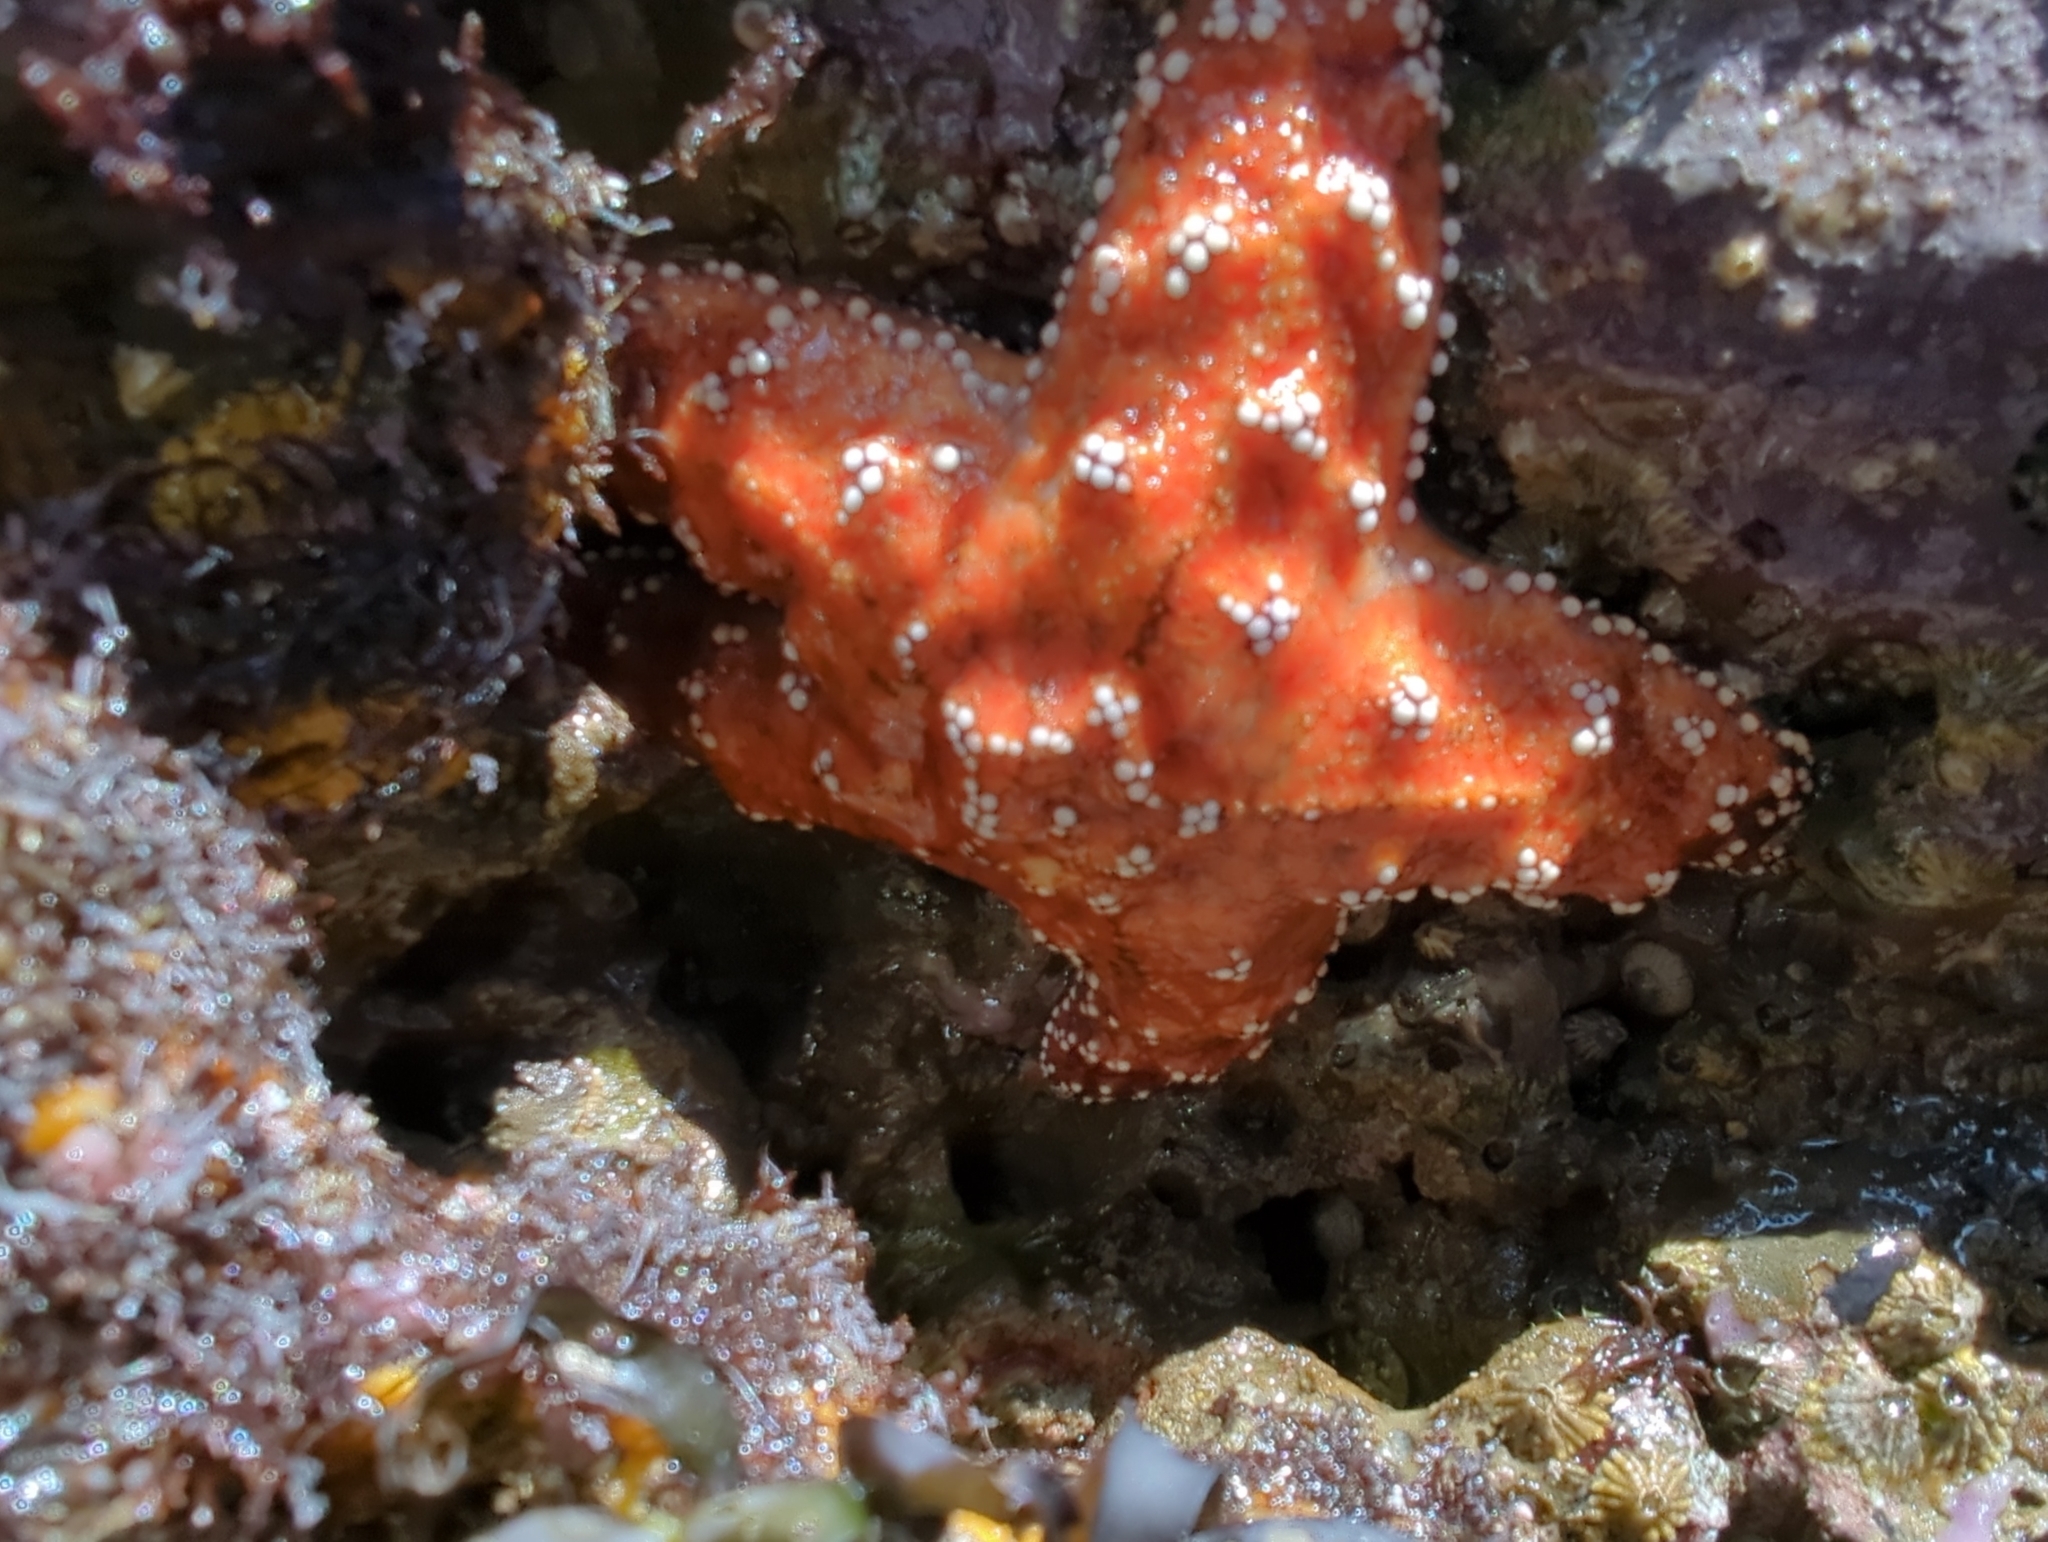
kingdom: Animalia
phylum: Echinodermata
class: Asteroidea
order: Forcipulatida
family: Asteriidae
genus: Pisaster
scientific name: Pisaster ochraceus
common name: Ochre stars
